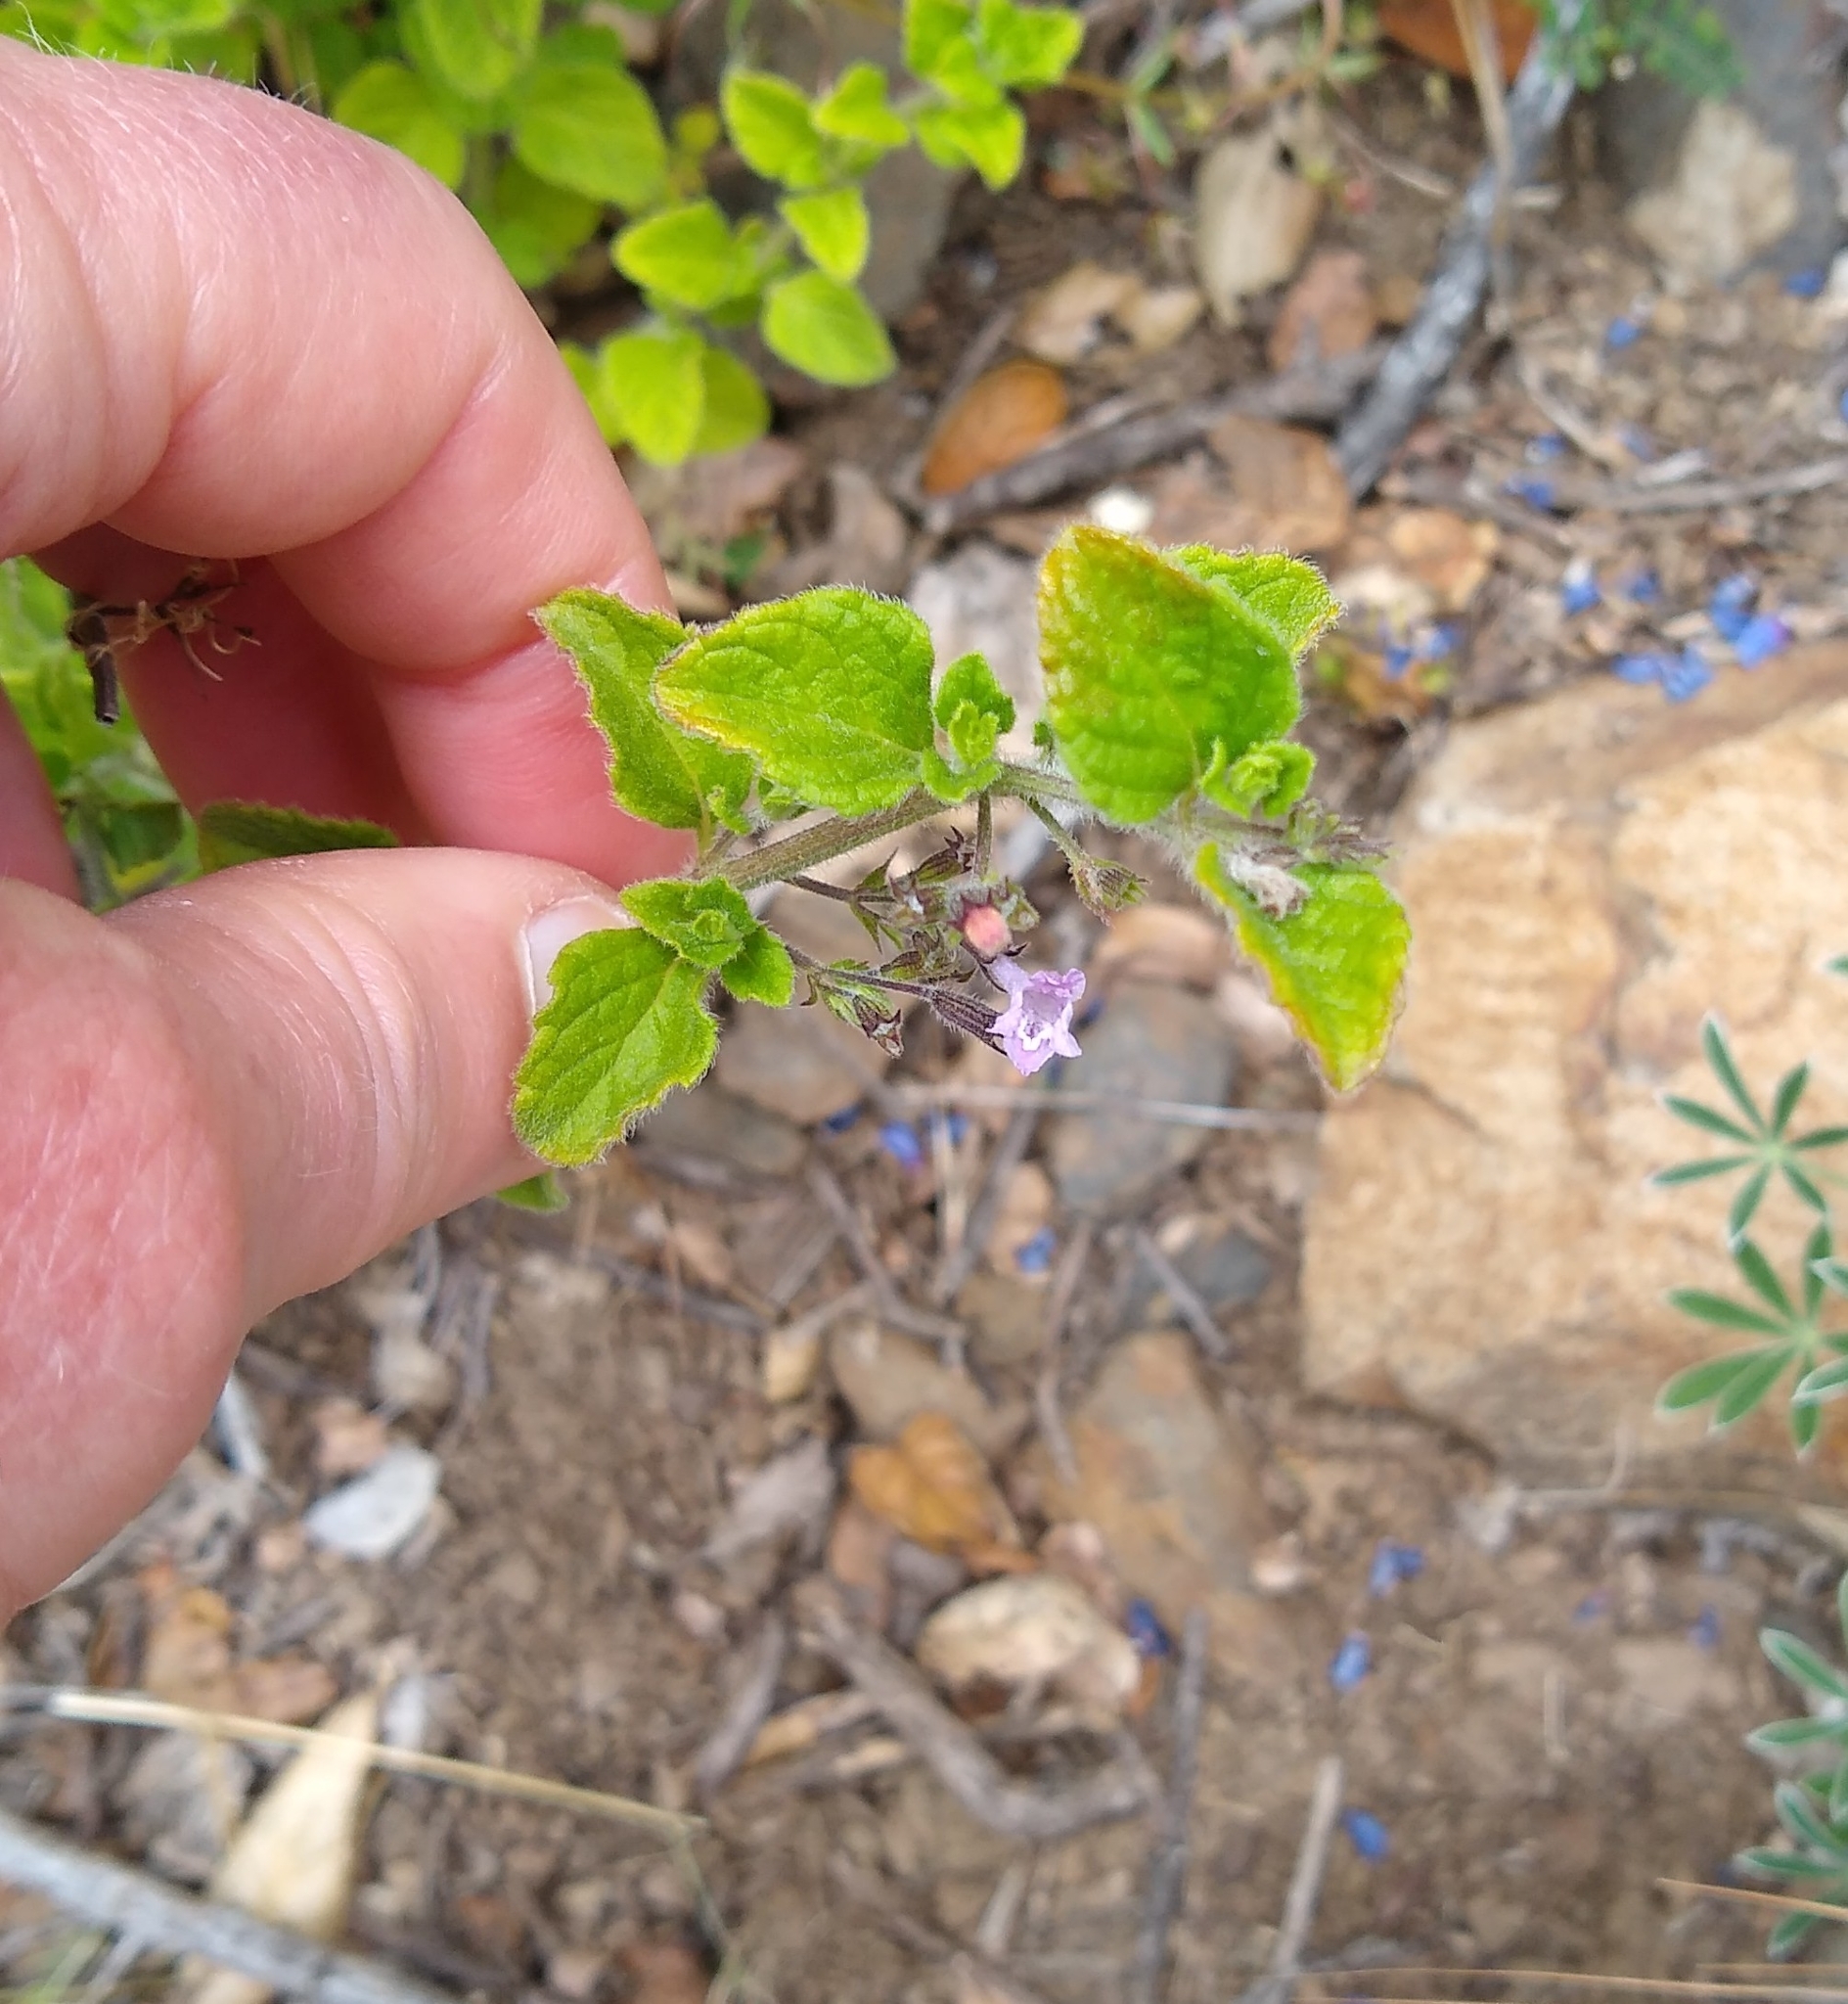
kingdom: Plantae
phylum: Tracheophyta
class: Magnoliopsida
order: Lamiales
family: Lamiaceae
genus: Clinopodium
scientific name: Clinopodium menthifolium
